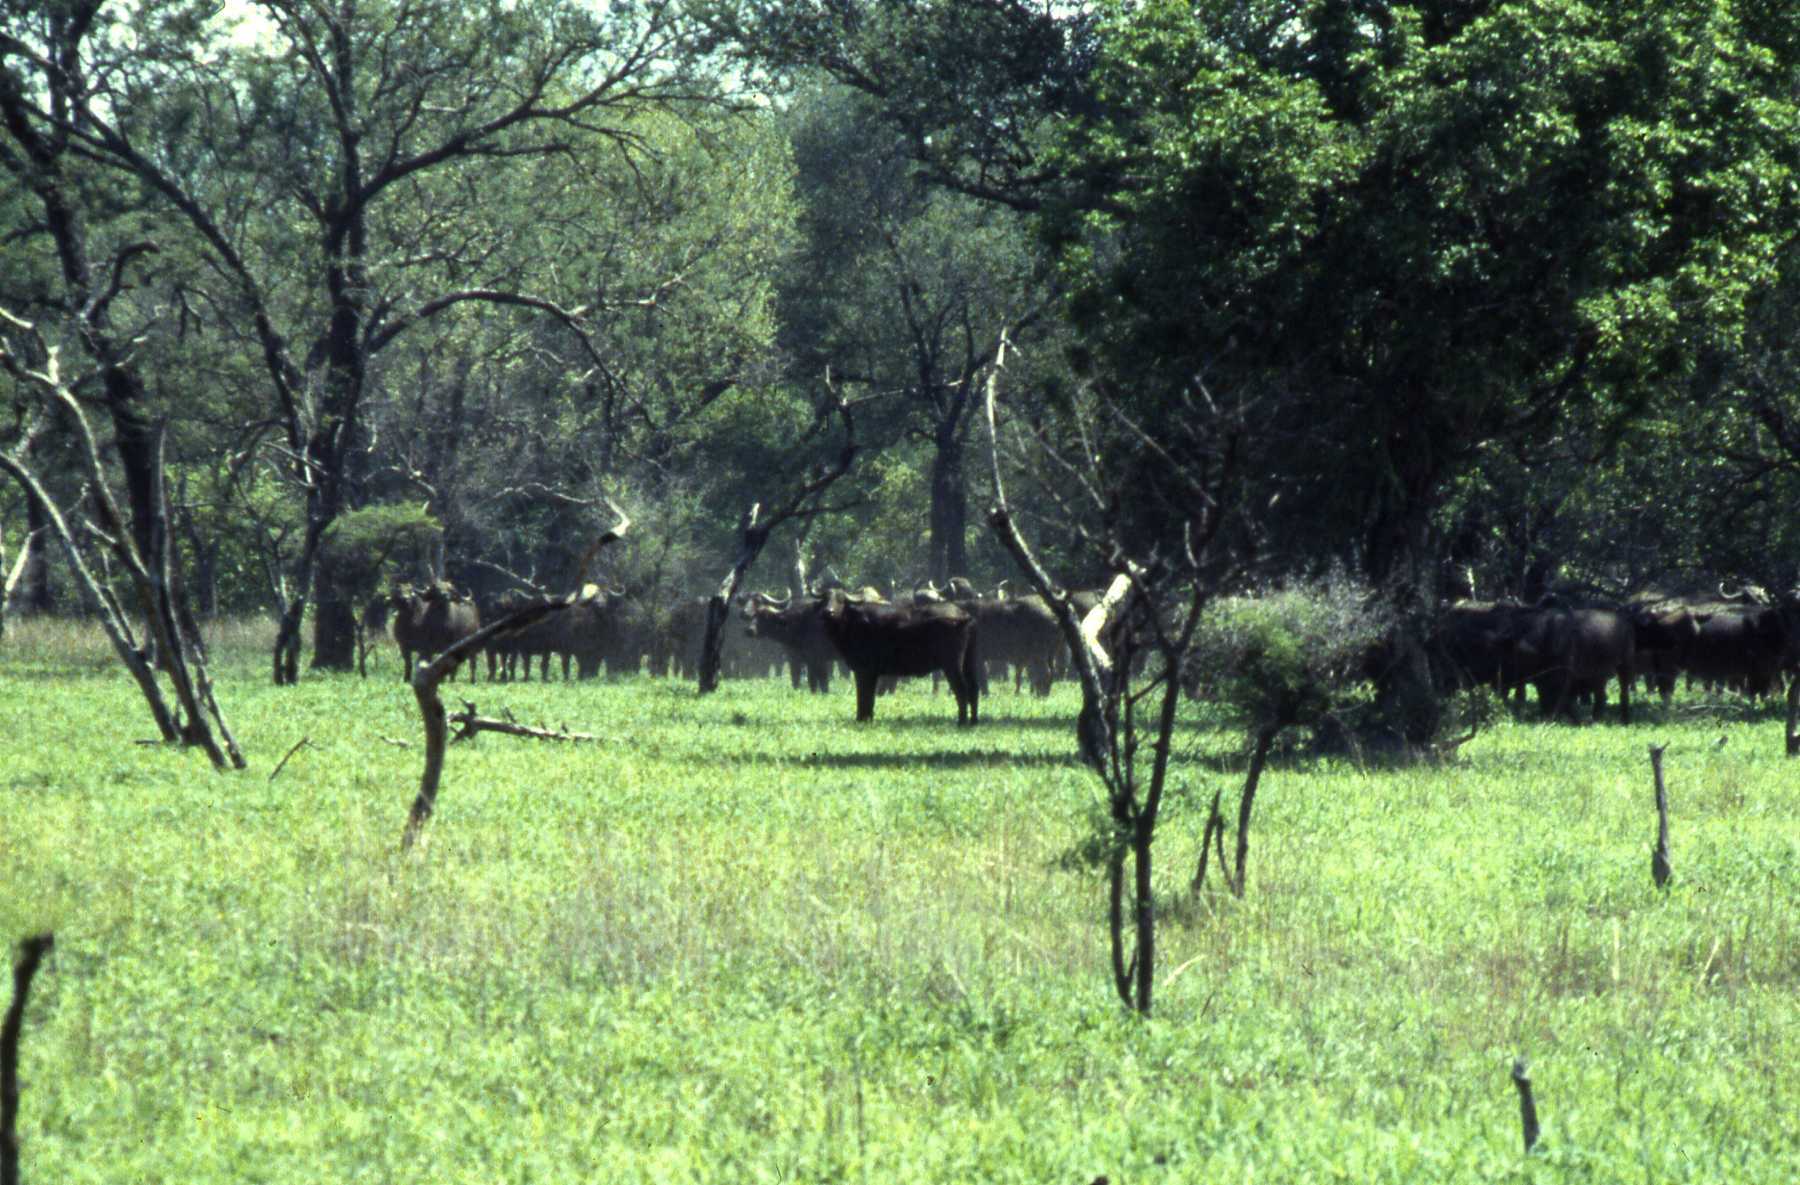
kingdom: Animalia
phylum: Chordata
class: Mammalia
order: Artiodactyla
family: Bovidae
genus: Syncerus
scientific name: Syncerus caffer
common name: African buffalo
